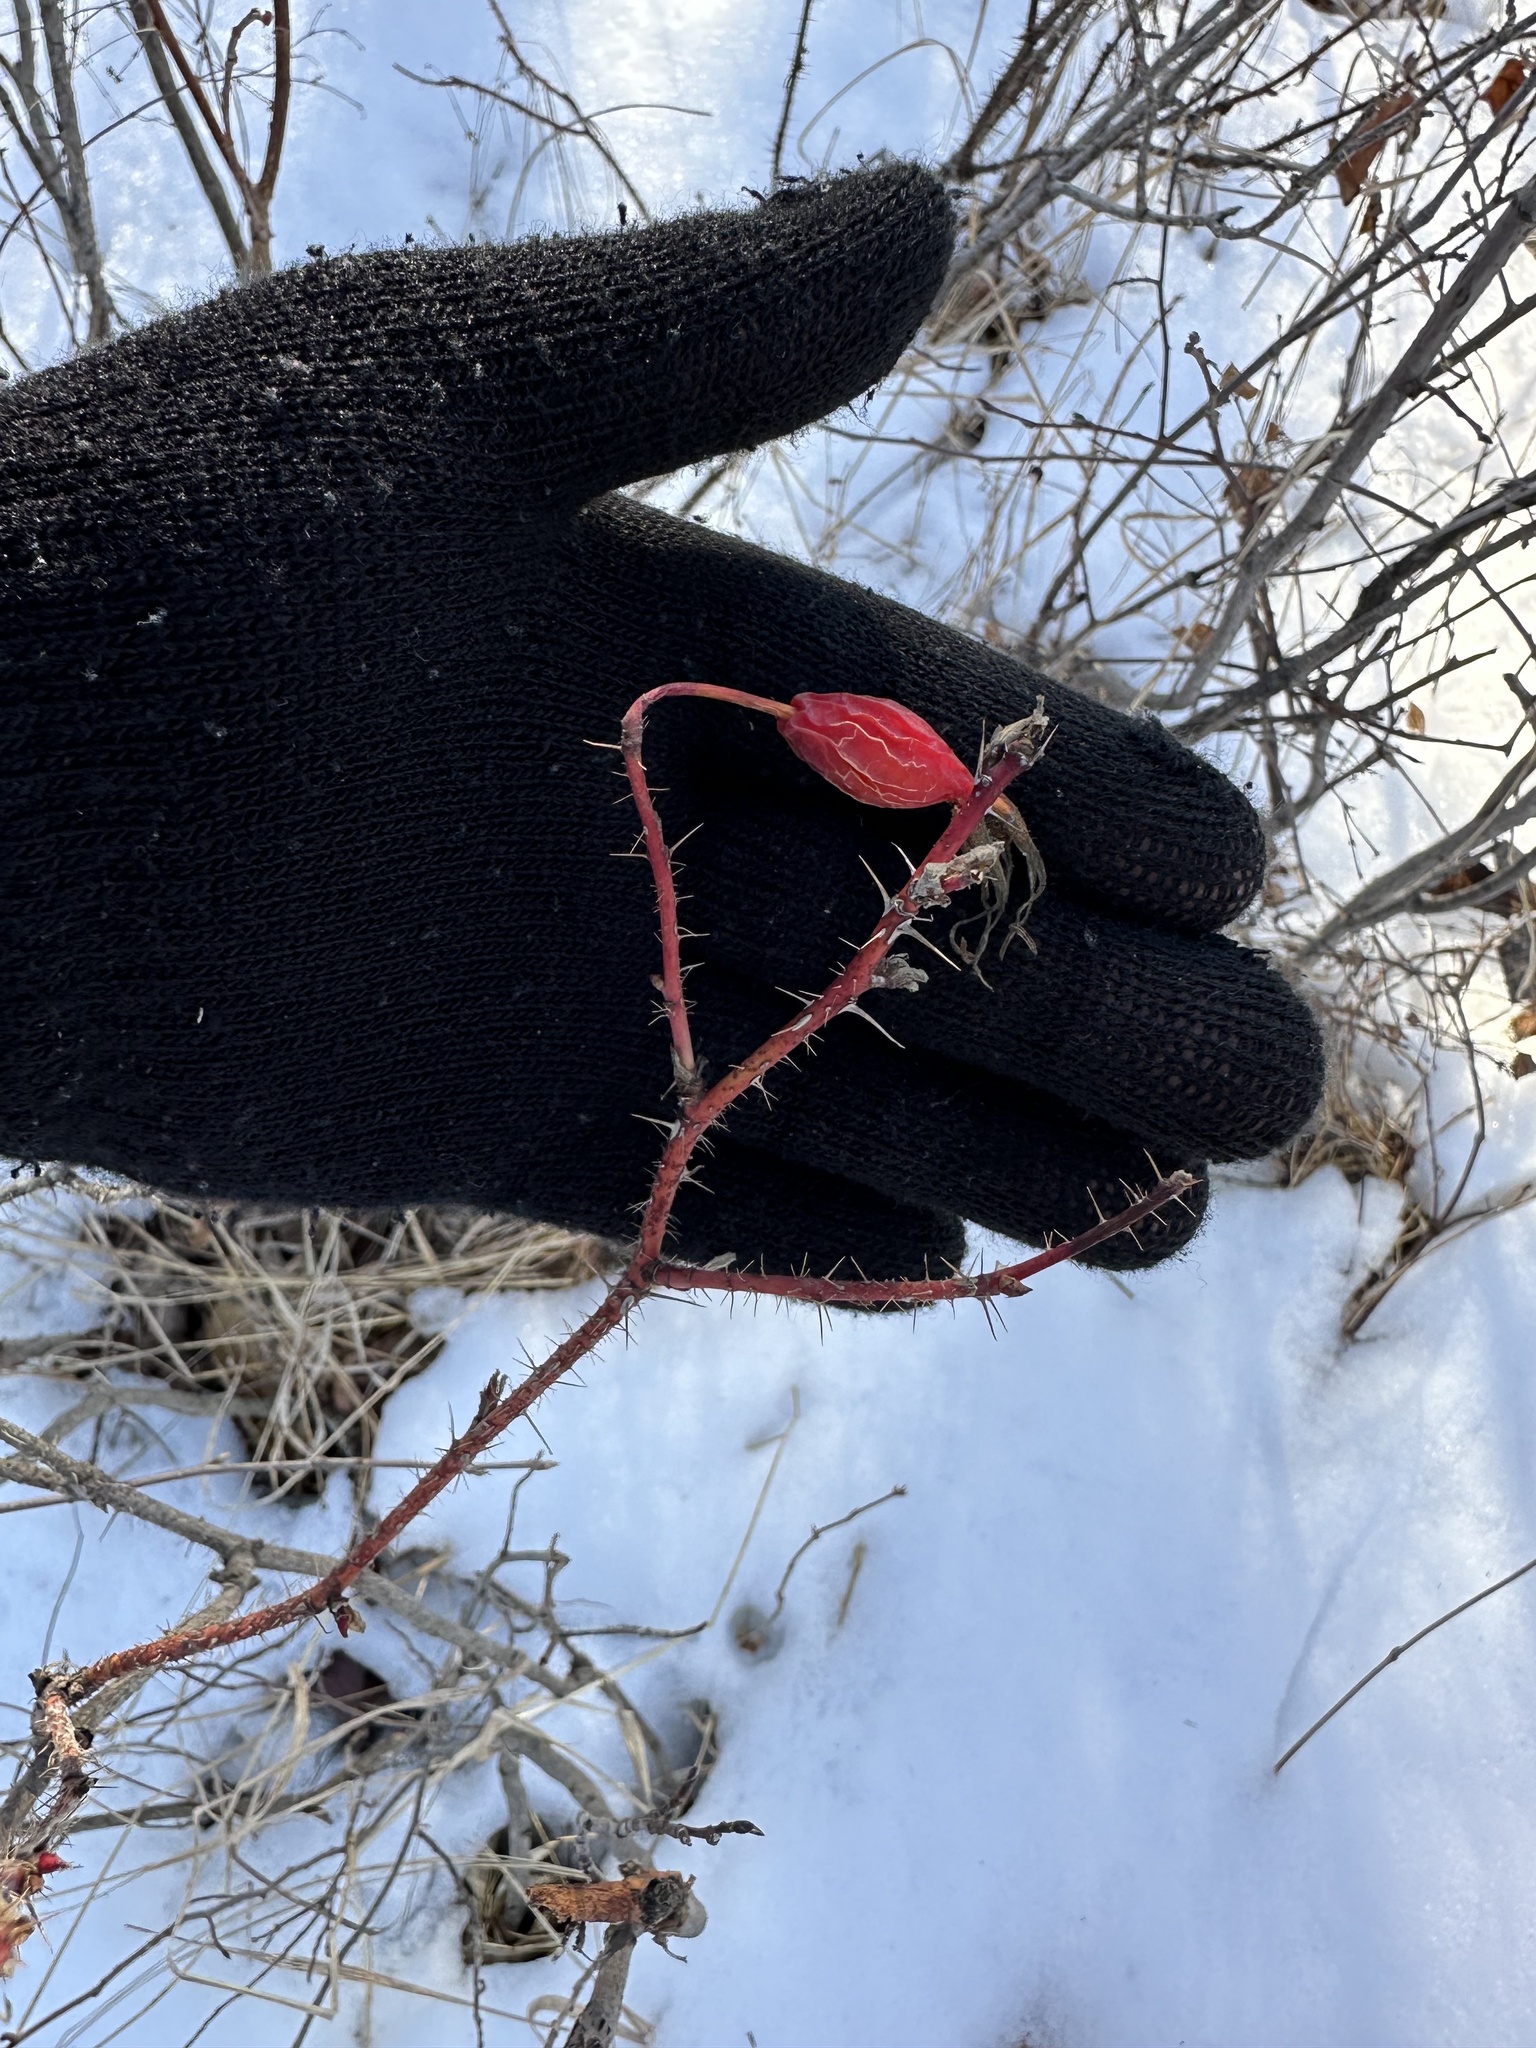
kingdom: Plantae
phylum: Tracheophyta
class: Magnoliopsida
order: Rosales
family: Rosaceae
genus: Rosa
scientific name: Rosa acicularis
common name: Prickly rose
